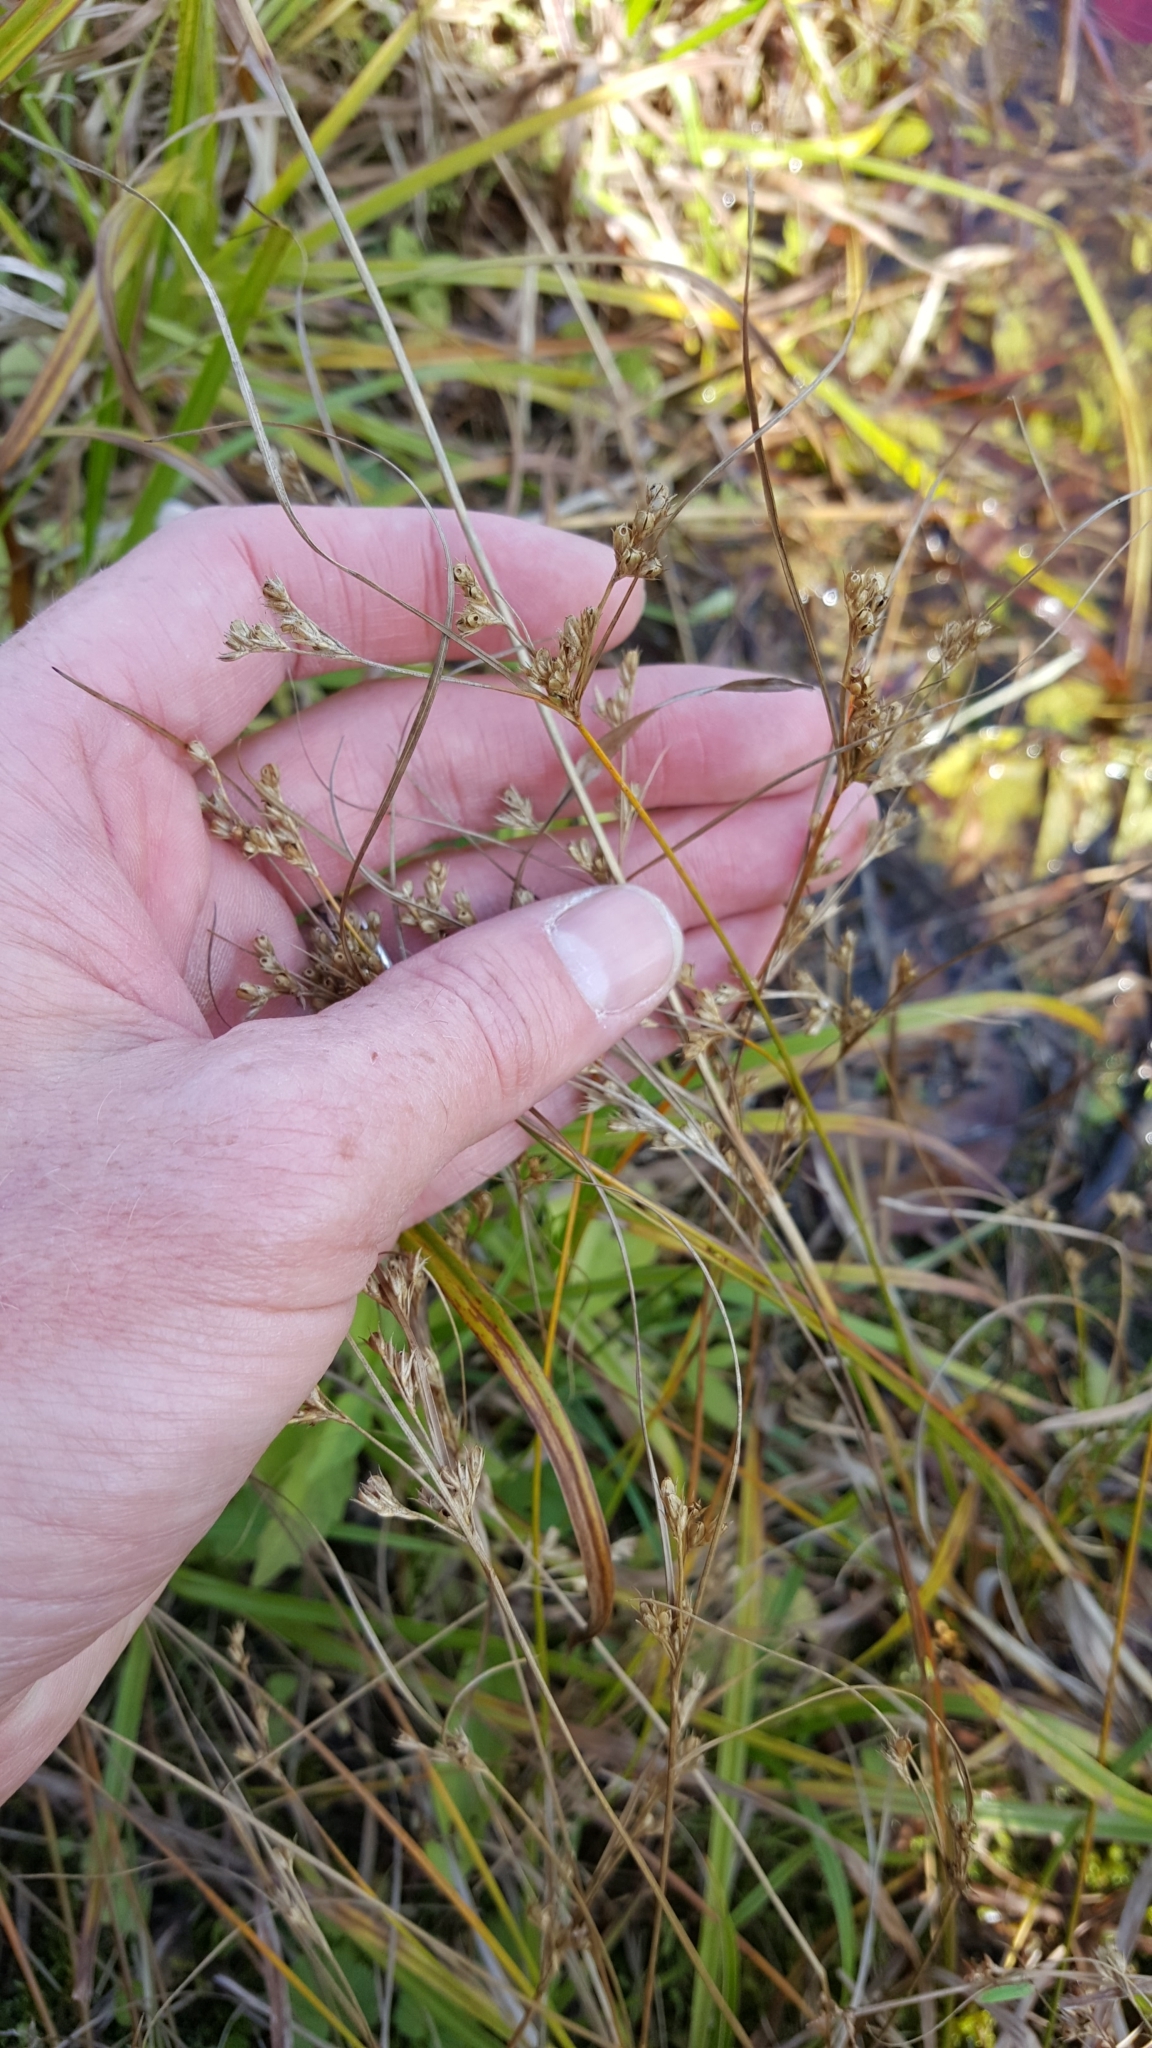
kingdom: Plantae
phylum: Tracheophyta
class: Liliopsida
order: Poales
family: Juncaceae
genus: Juncus
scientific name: Juncus tenuis
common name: Slender rush
